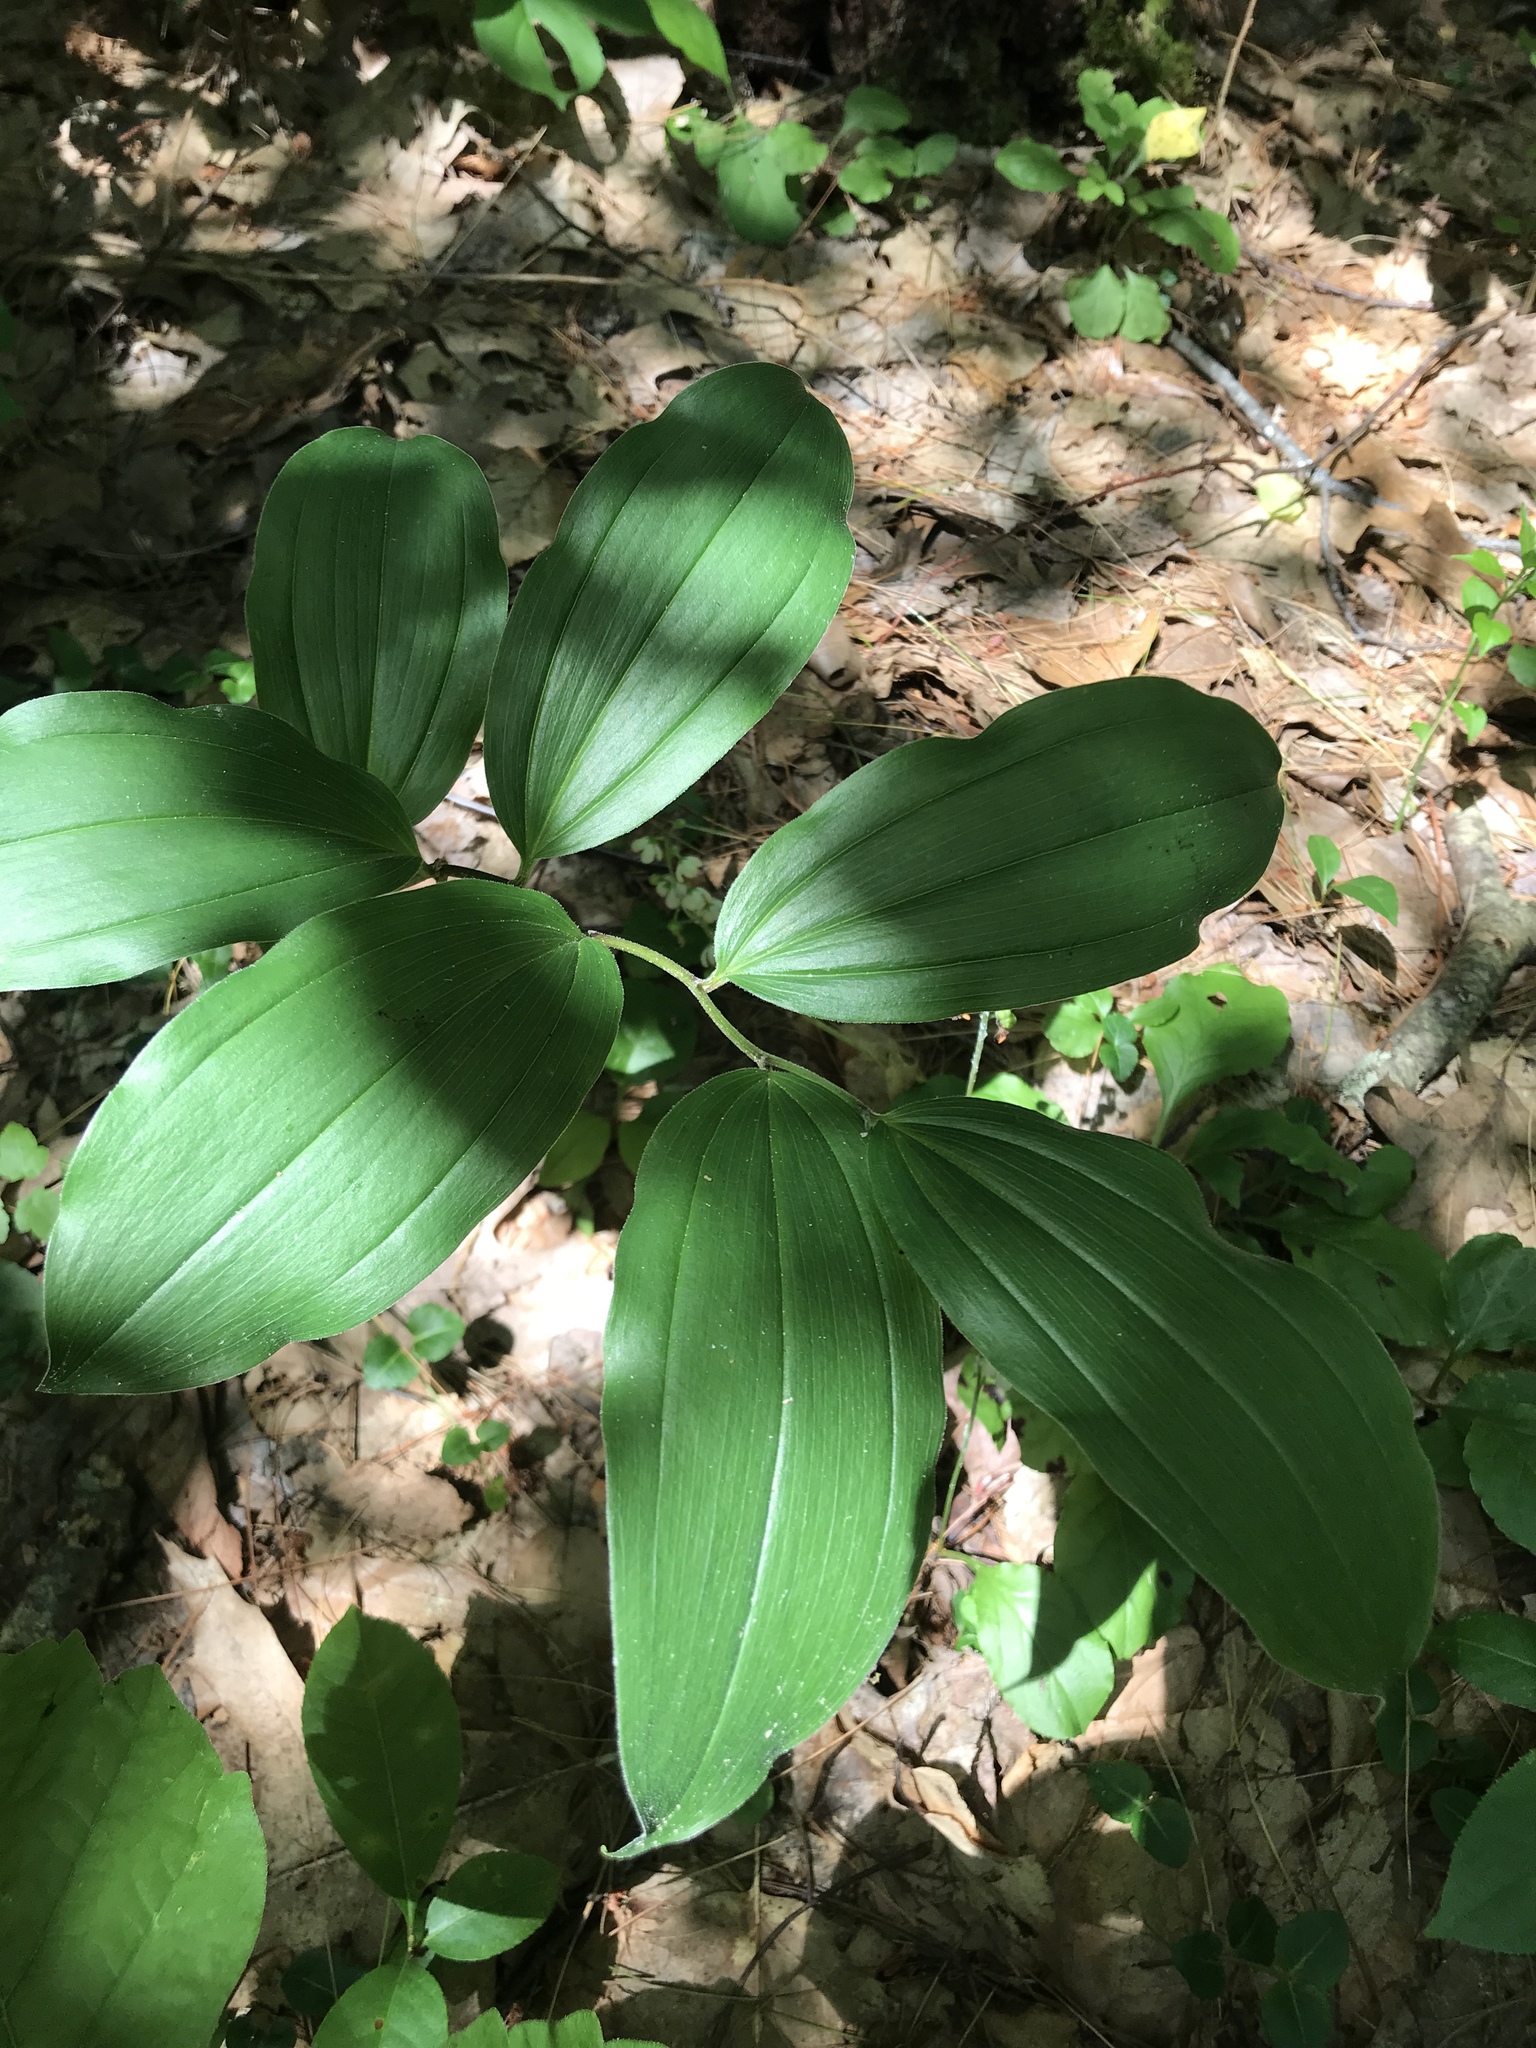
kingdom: Plantae
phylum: Tracheophyta
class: Liliopsida
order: Asparagales
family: Asparagaceae
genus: Maianthemum
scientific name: Maianthemum racemosum
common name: False spikenard
